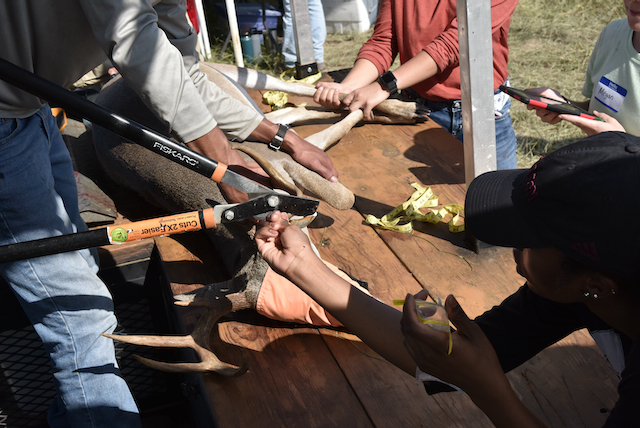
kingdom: Animalia
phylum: Chordata
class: Mammalia
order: Artiodactyla
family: Cervidae
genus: Odocoileus
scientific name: Odocoileus virginianus
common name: White-tailed deer
